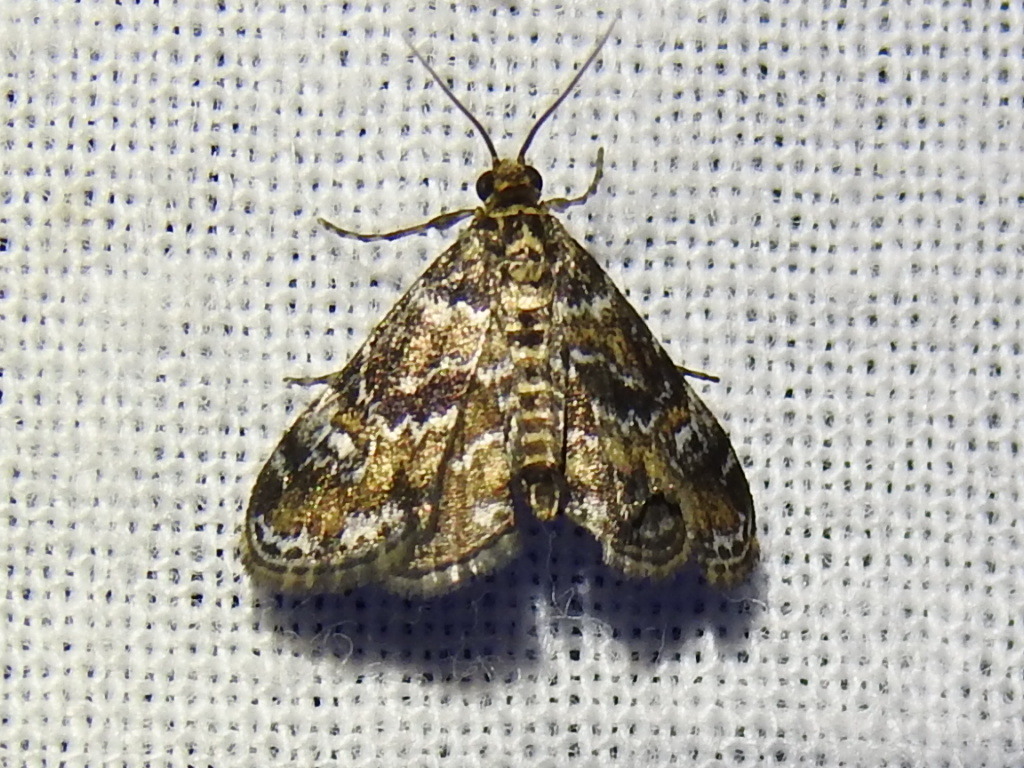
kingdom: Animalia
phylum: Arthropoda
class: Insecta
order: Lepidoptera
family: Crambidae
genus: Elophila
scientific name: Elophila obliteralis
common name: Waterlily leafcutter moth
